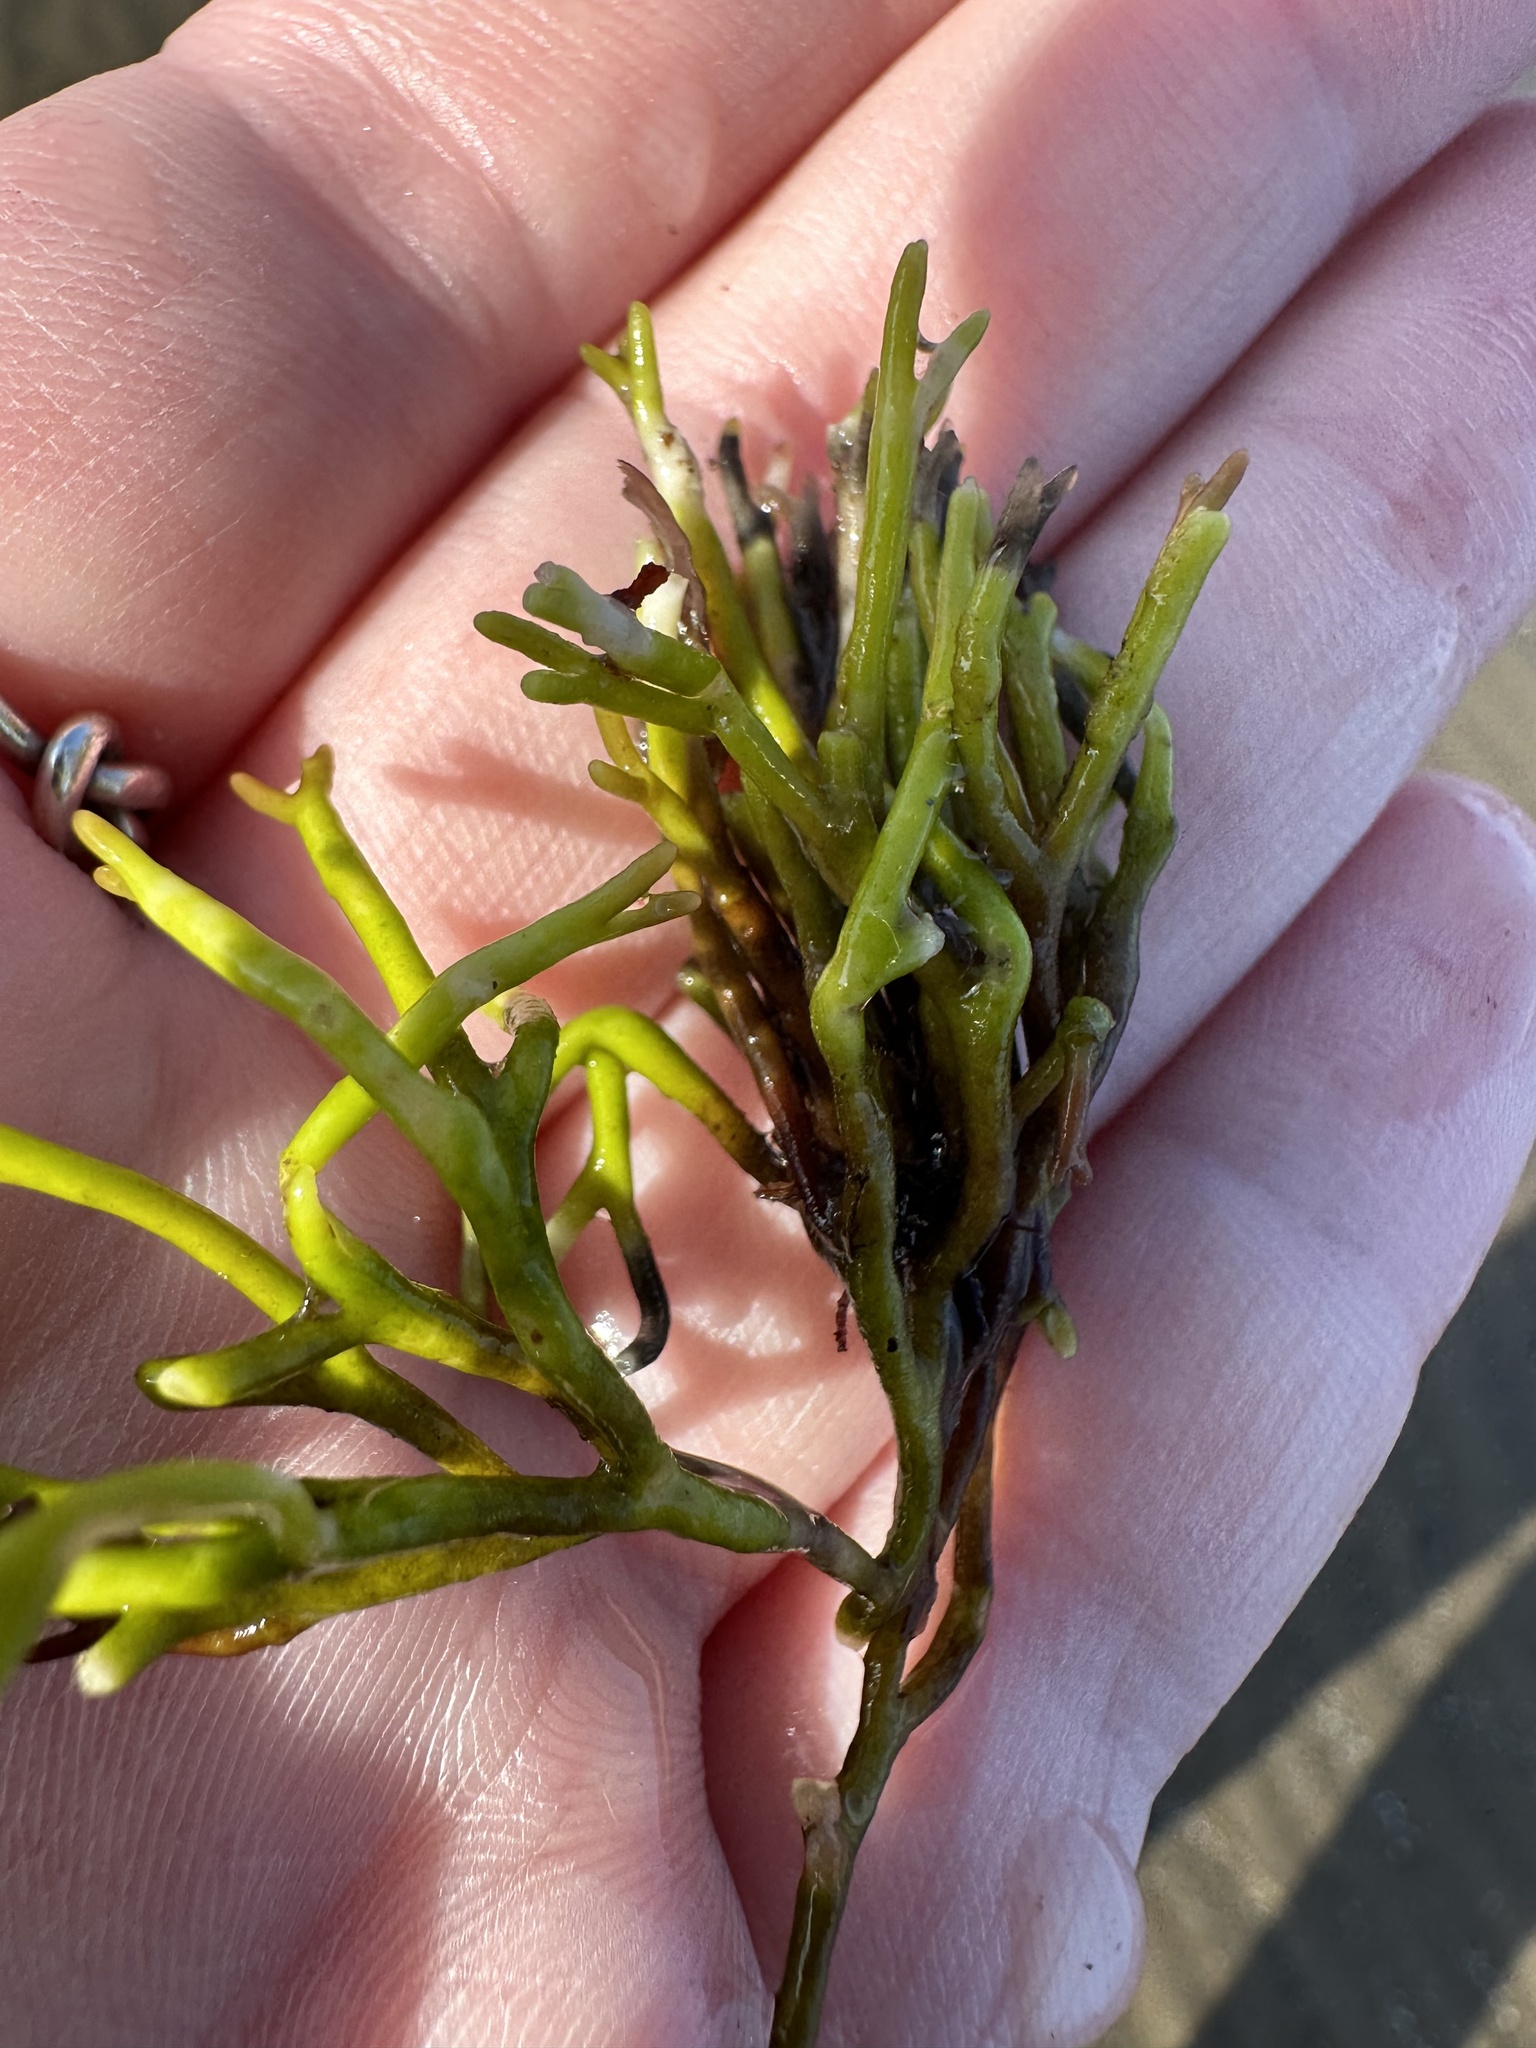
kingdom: Plantae
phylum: Chlorophyta
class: Ulvophyceae
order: Bryopsidales
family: Codiaceae
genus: Codium
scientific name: Codium fragile
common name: Dead man's fingers
